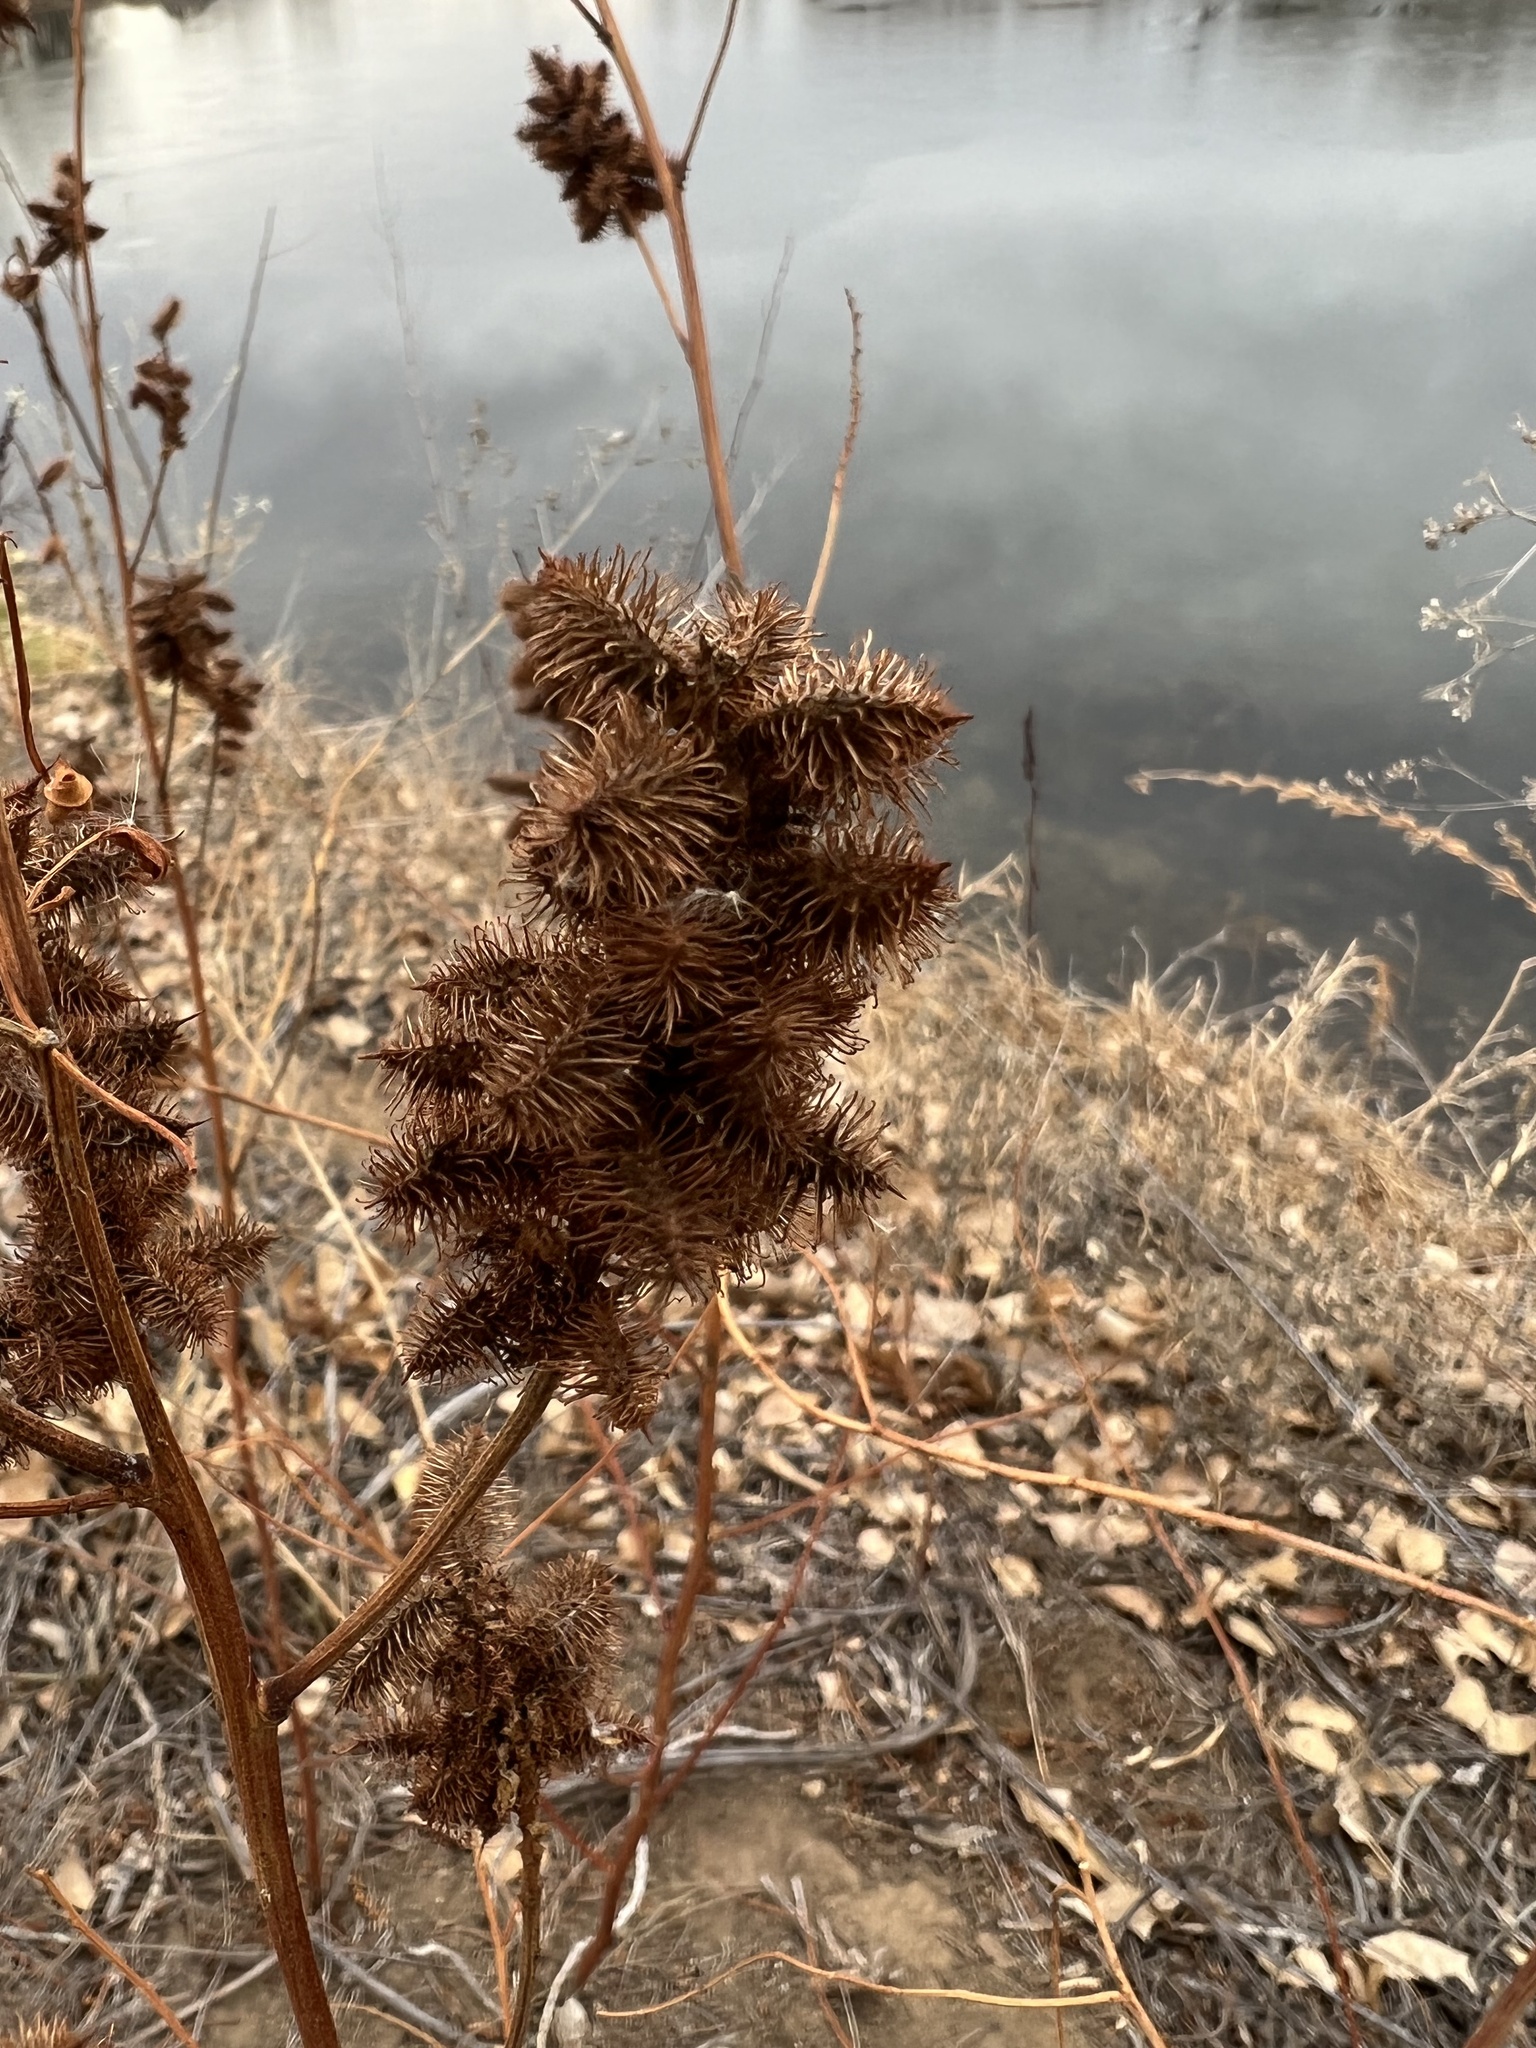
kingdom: Plantae
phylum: Tracheophyta
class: Magnoliopsida
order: Fabales
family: Fabaceae
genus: Glycyrrhiza
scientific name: Glycyrrhiza lepidota
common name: American liquorice
